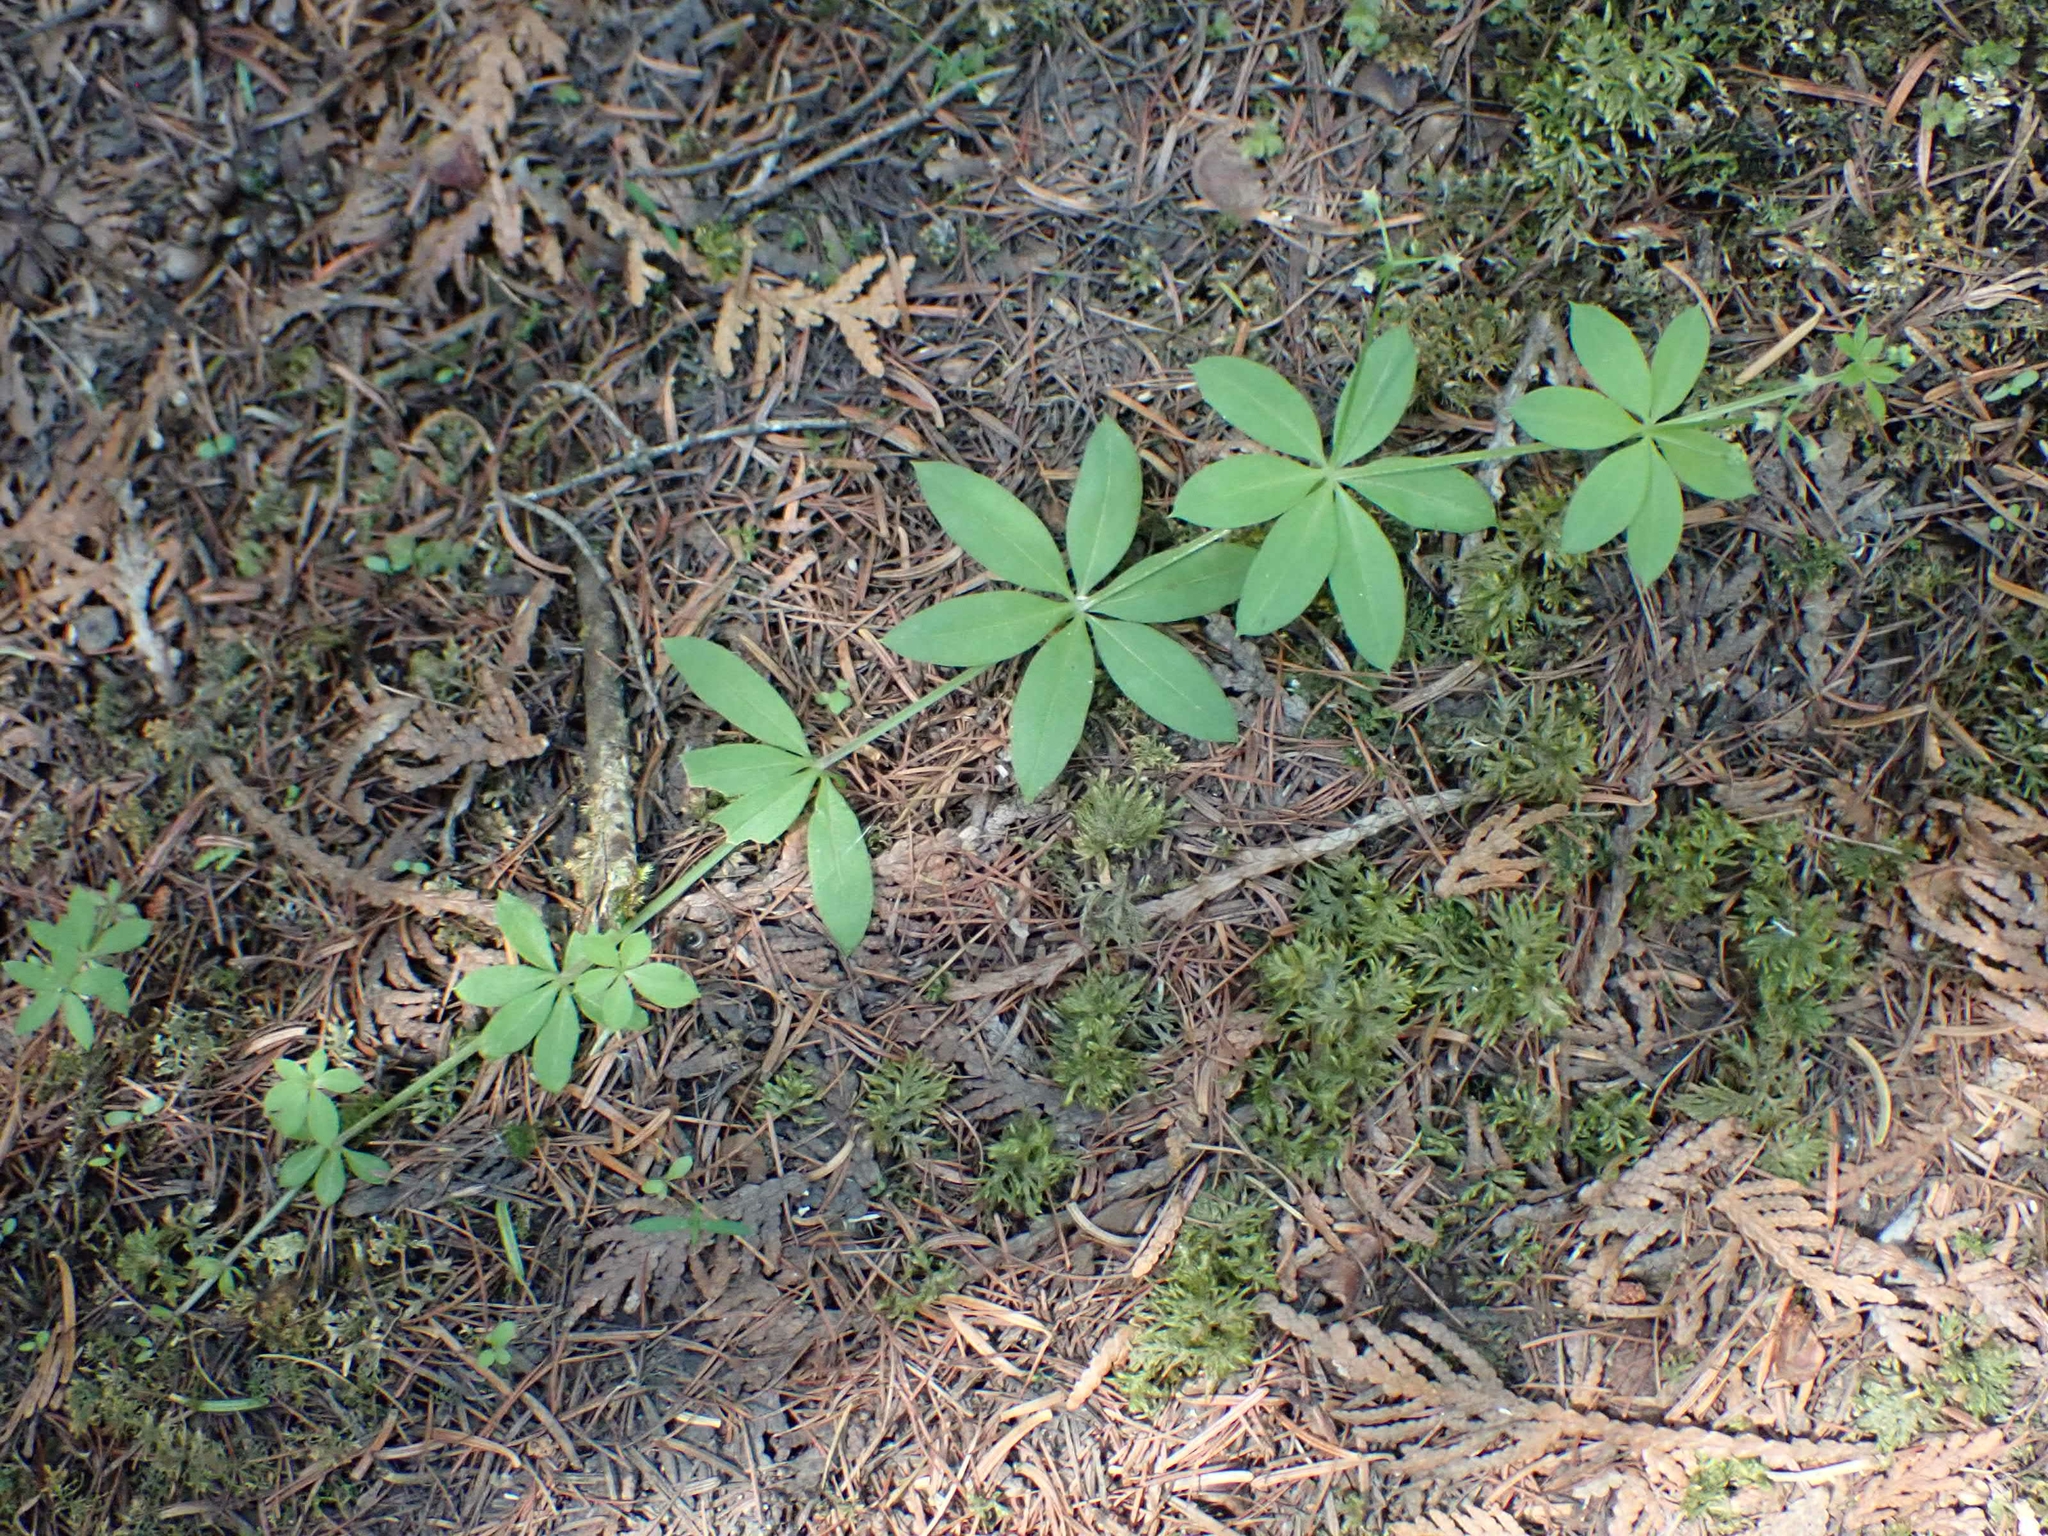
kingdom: Plantae
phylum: Tracheophyta
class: Magnoliopsida
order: Gentianales
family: Rubiaceae
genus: Galium
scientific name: Galium triflorum
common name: Fragrant bedstraw
